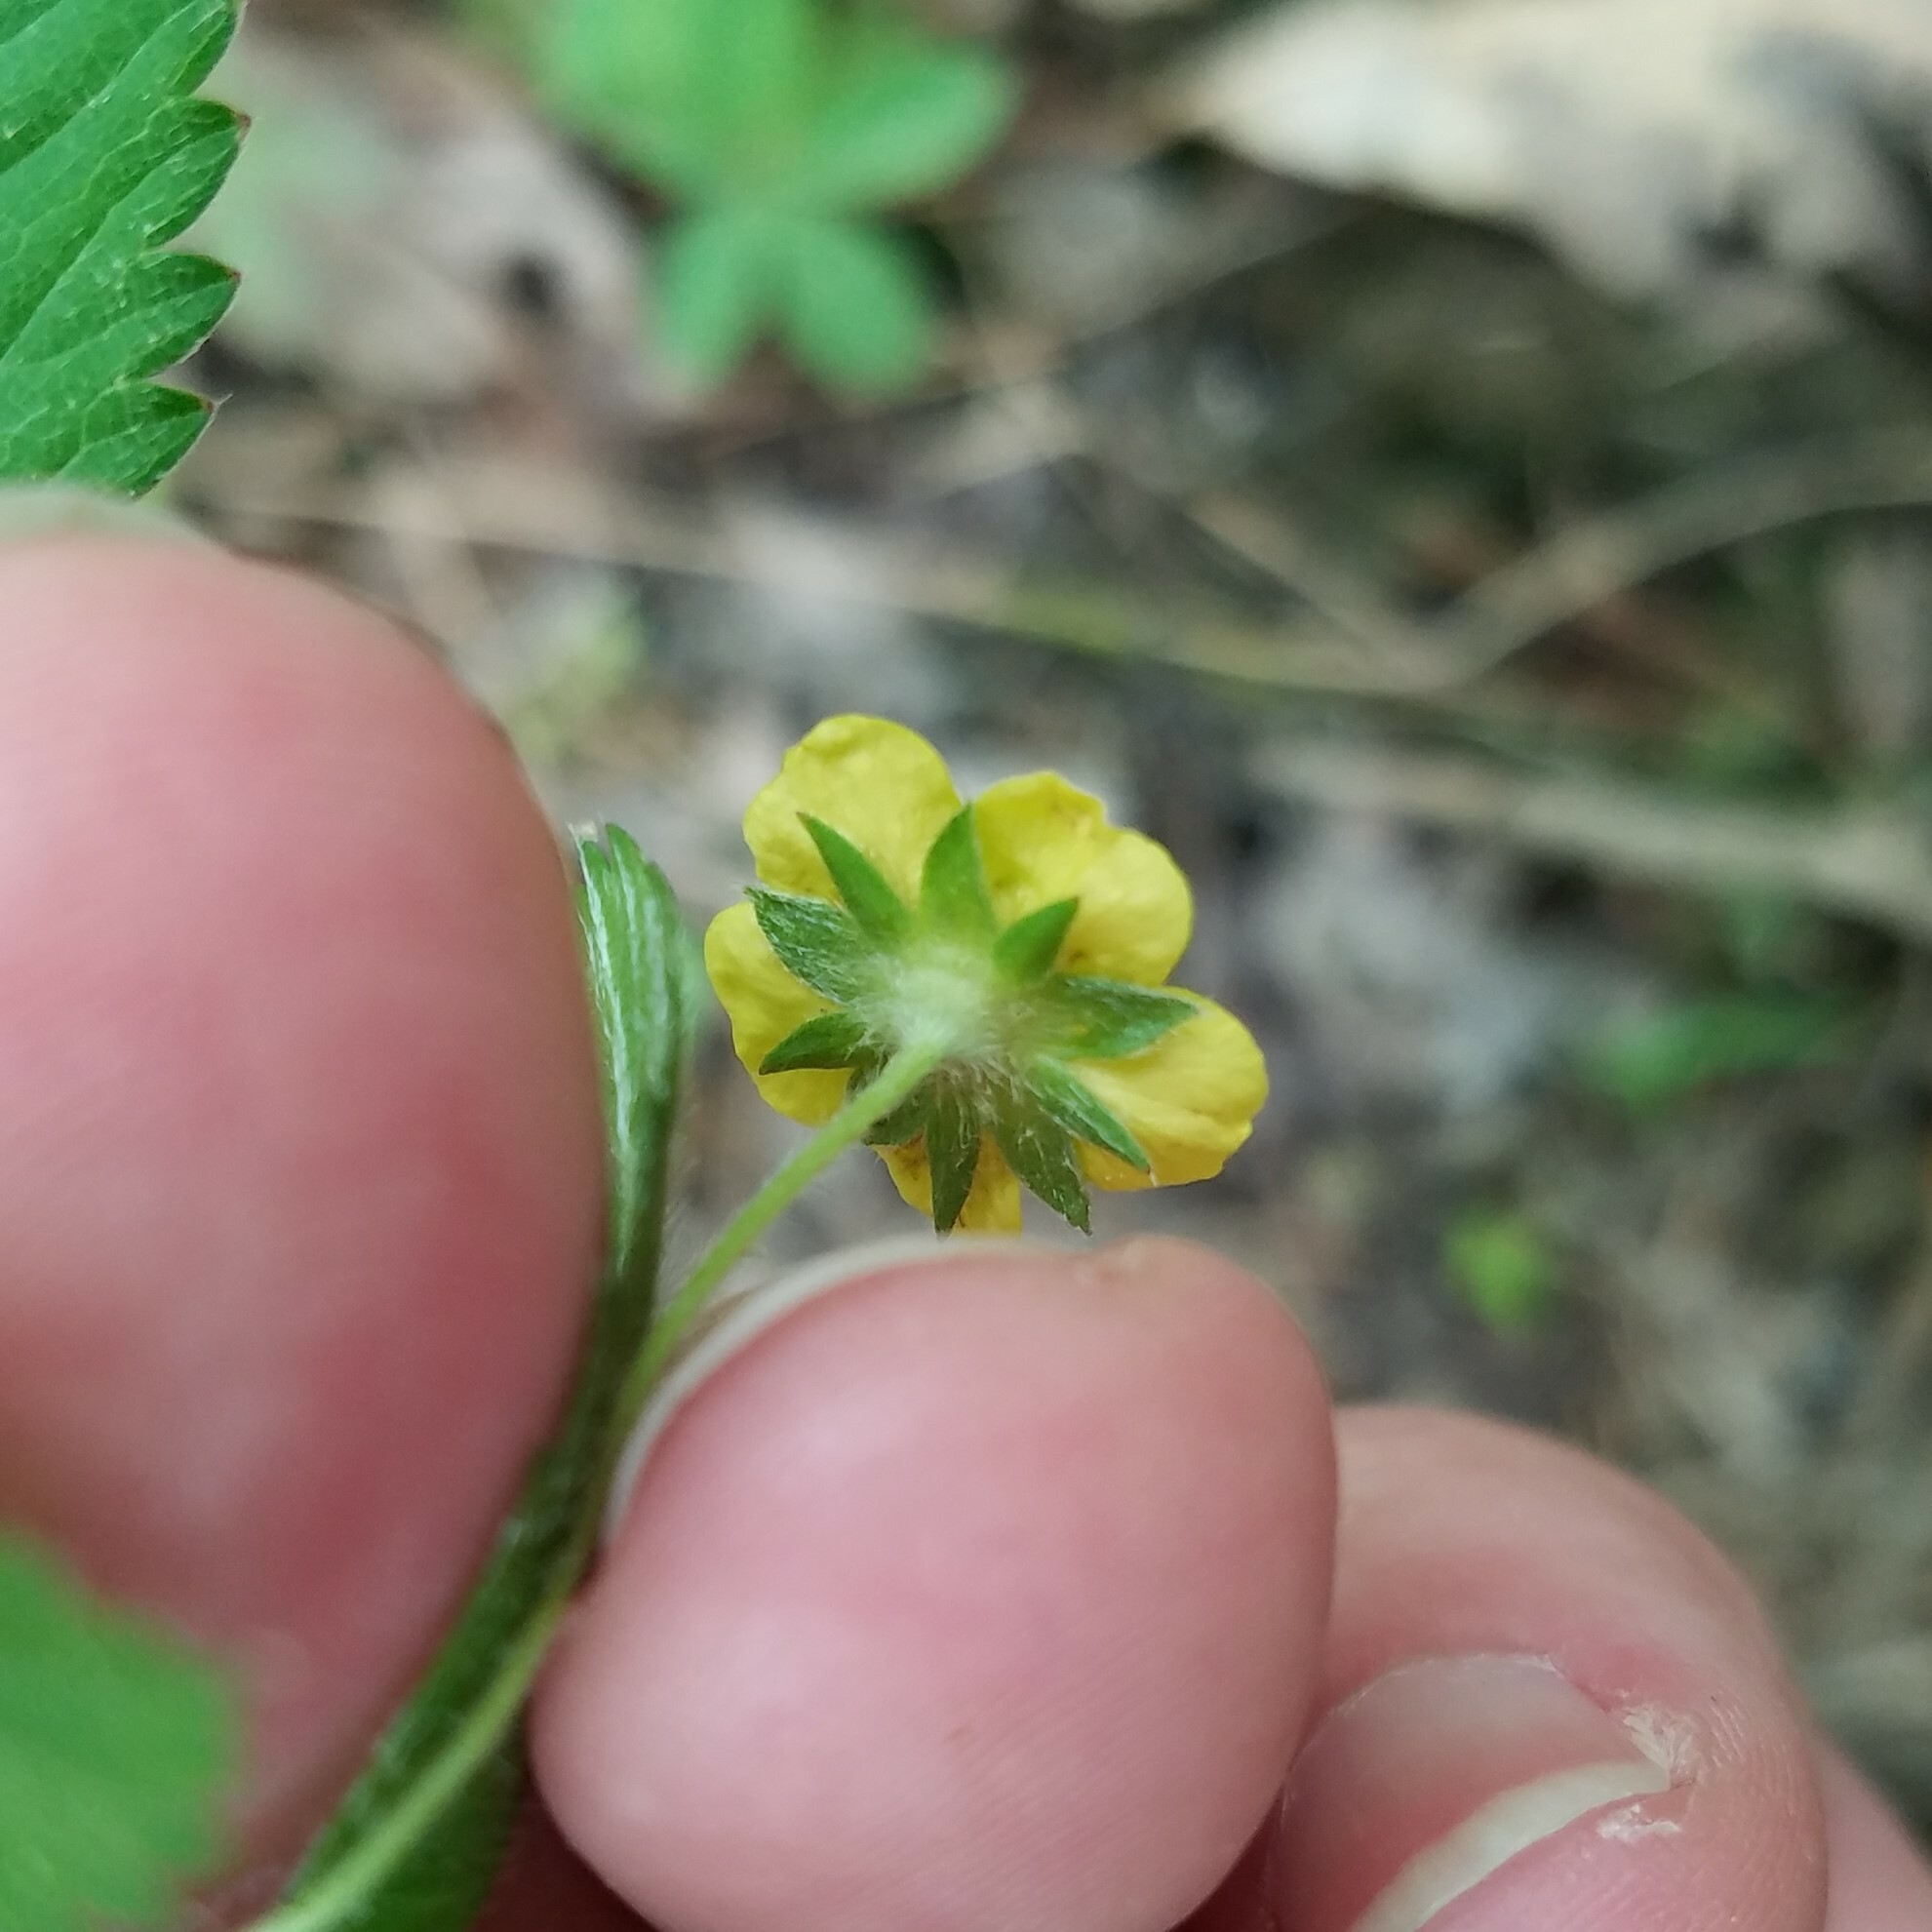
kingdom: Plantae
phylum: Tracheophyta
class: Magnoliopsida
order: Rosales
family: Rosaceae
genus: Potentilla
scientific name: Potentilla simplex
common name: Old field cinquefoil
